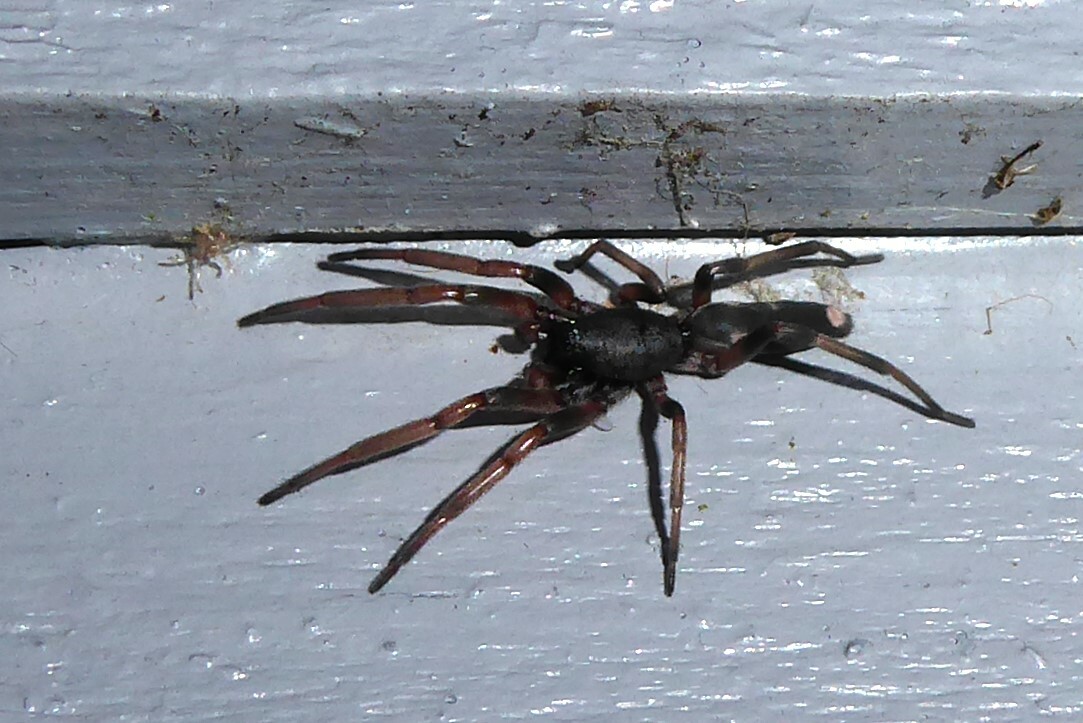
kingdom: Animalia
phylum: Arthropoda
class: Arachnida
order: Araneae
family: Lamponidae
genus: Lampona
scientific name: Lampona cylindrata
